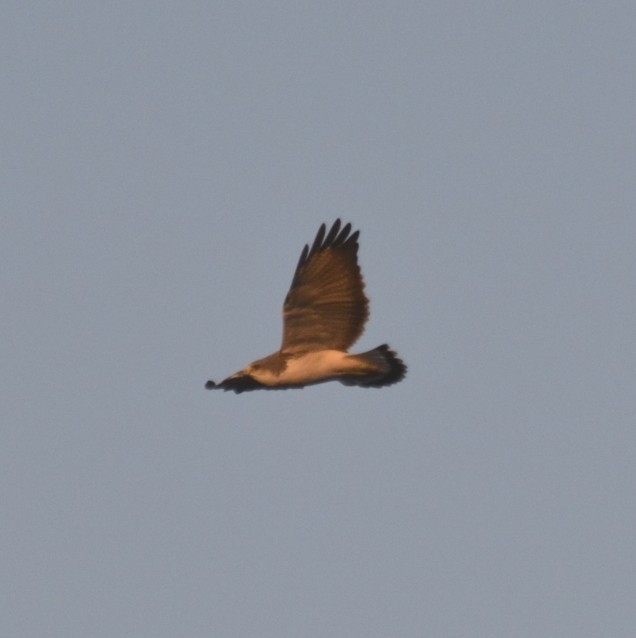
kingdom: Animalia
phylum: Chordata
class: Aves
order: Accipitriformes
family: Accipitridae
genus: Buteo
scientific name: Buteo albicaudatus
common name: White-tailed hawk
